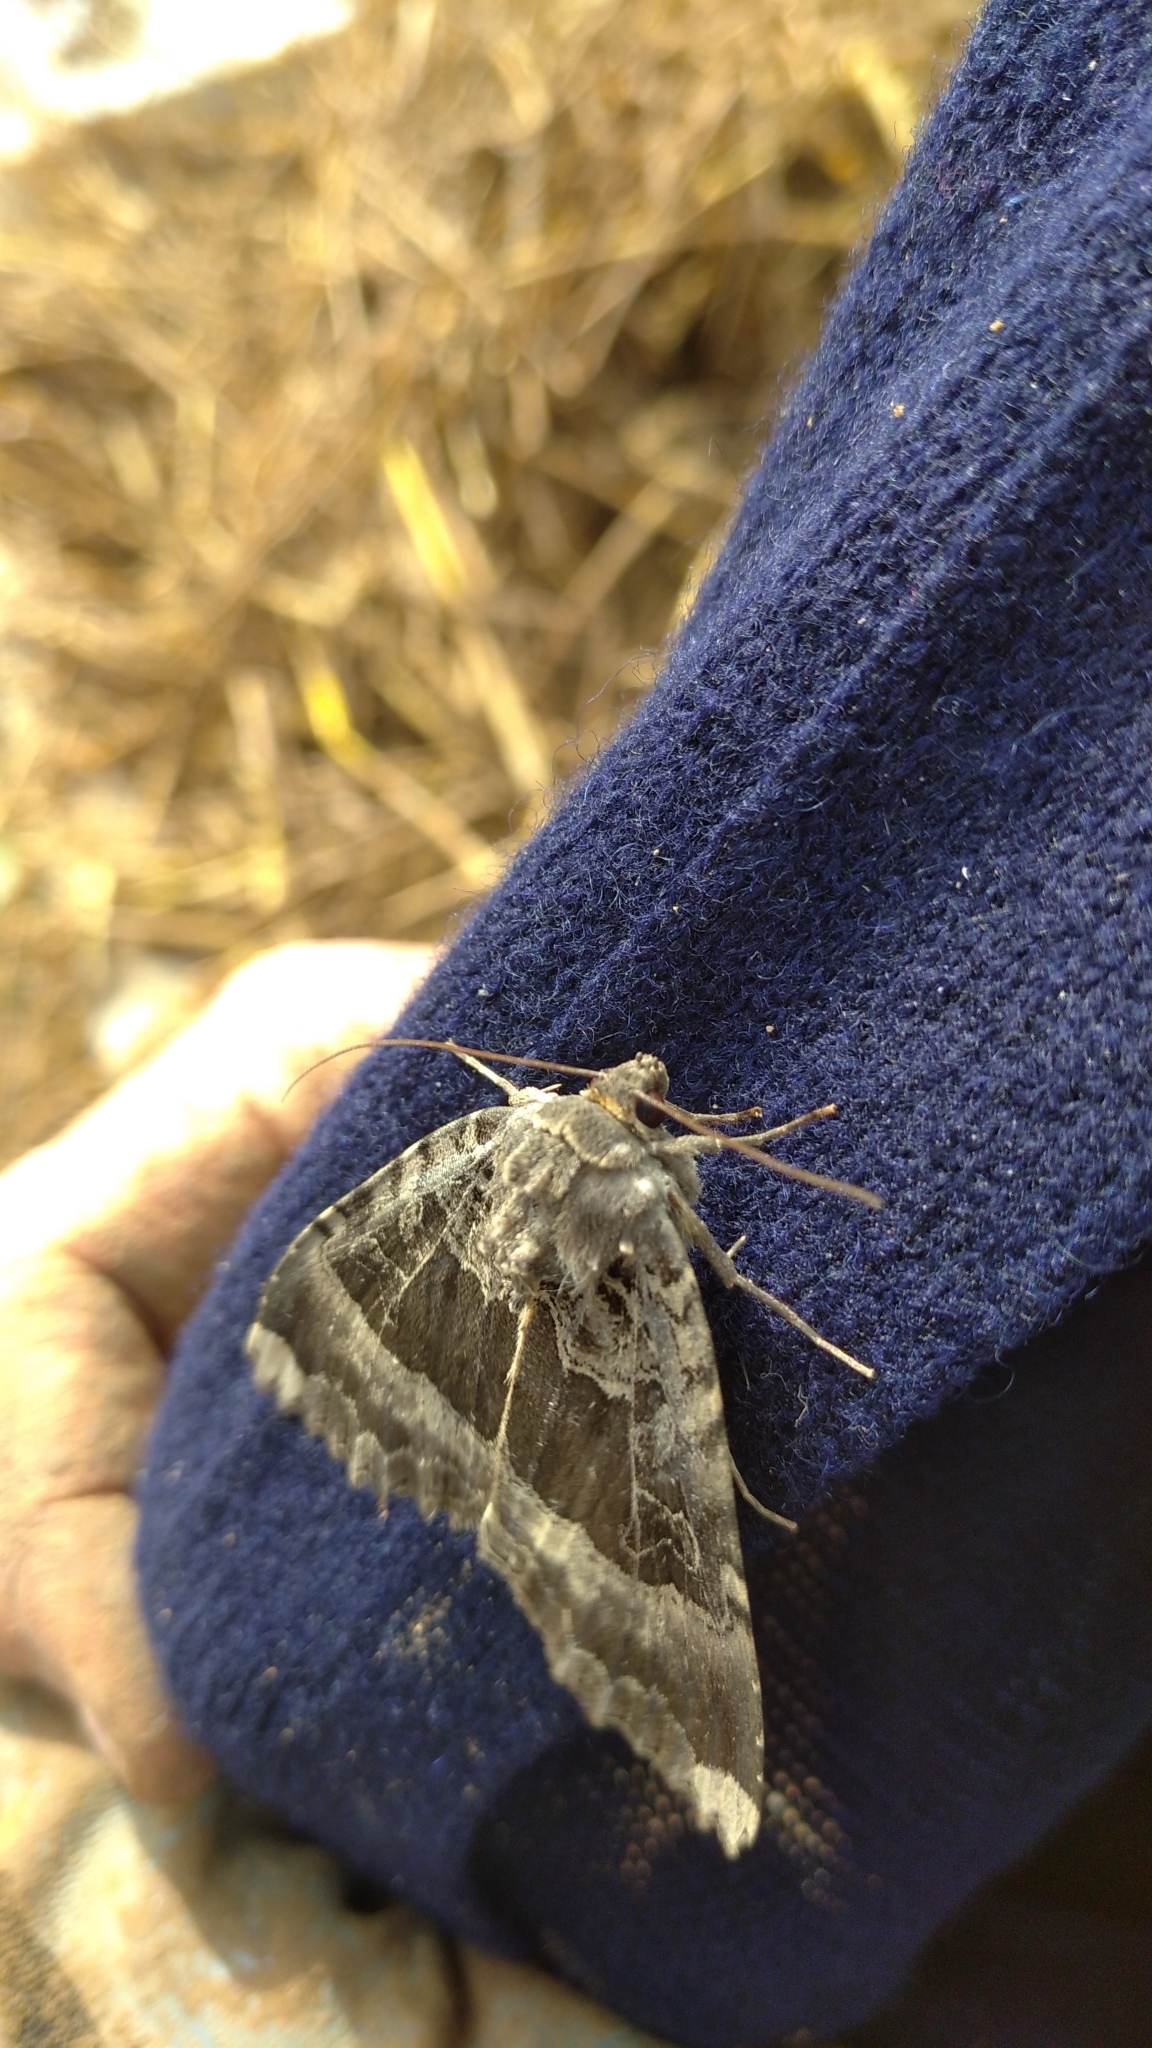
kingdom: Animalia
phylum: Arthropoda
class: Insecta
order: Lepidoptera
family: Noctuidae
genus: Mormo
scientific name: Mormo maura
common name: Old lady
